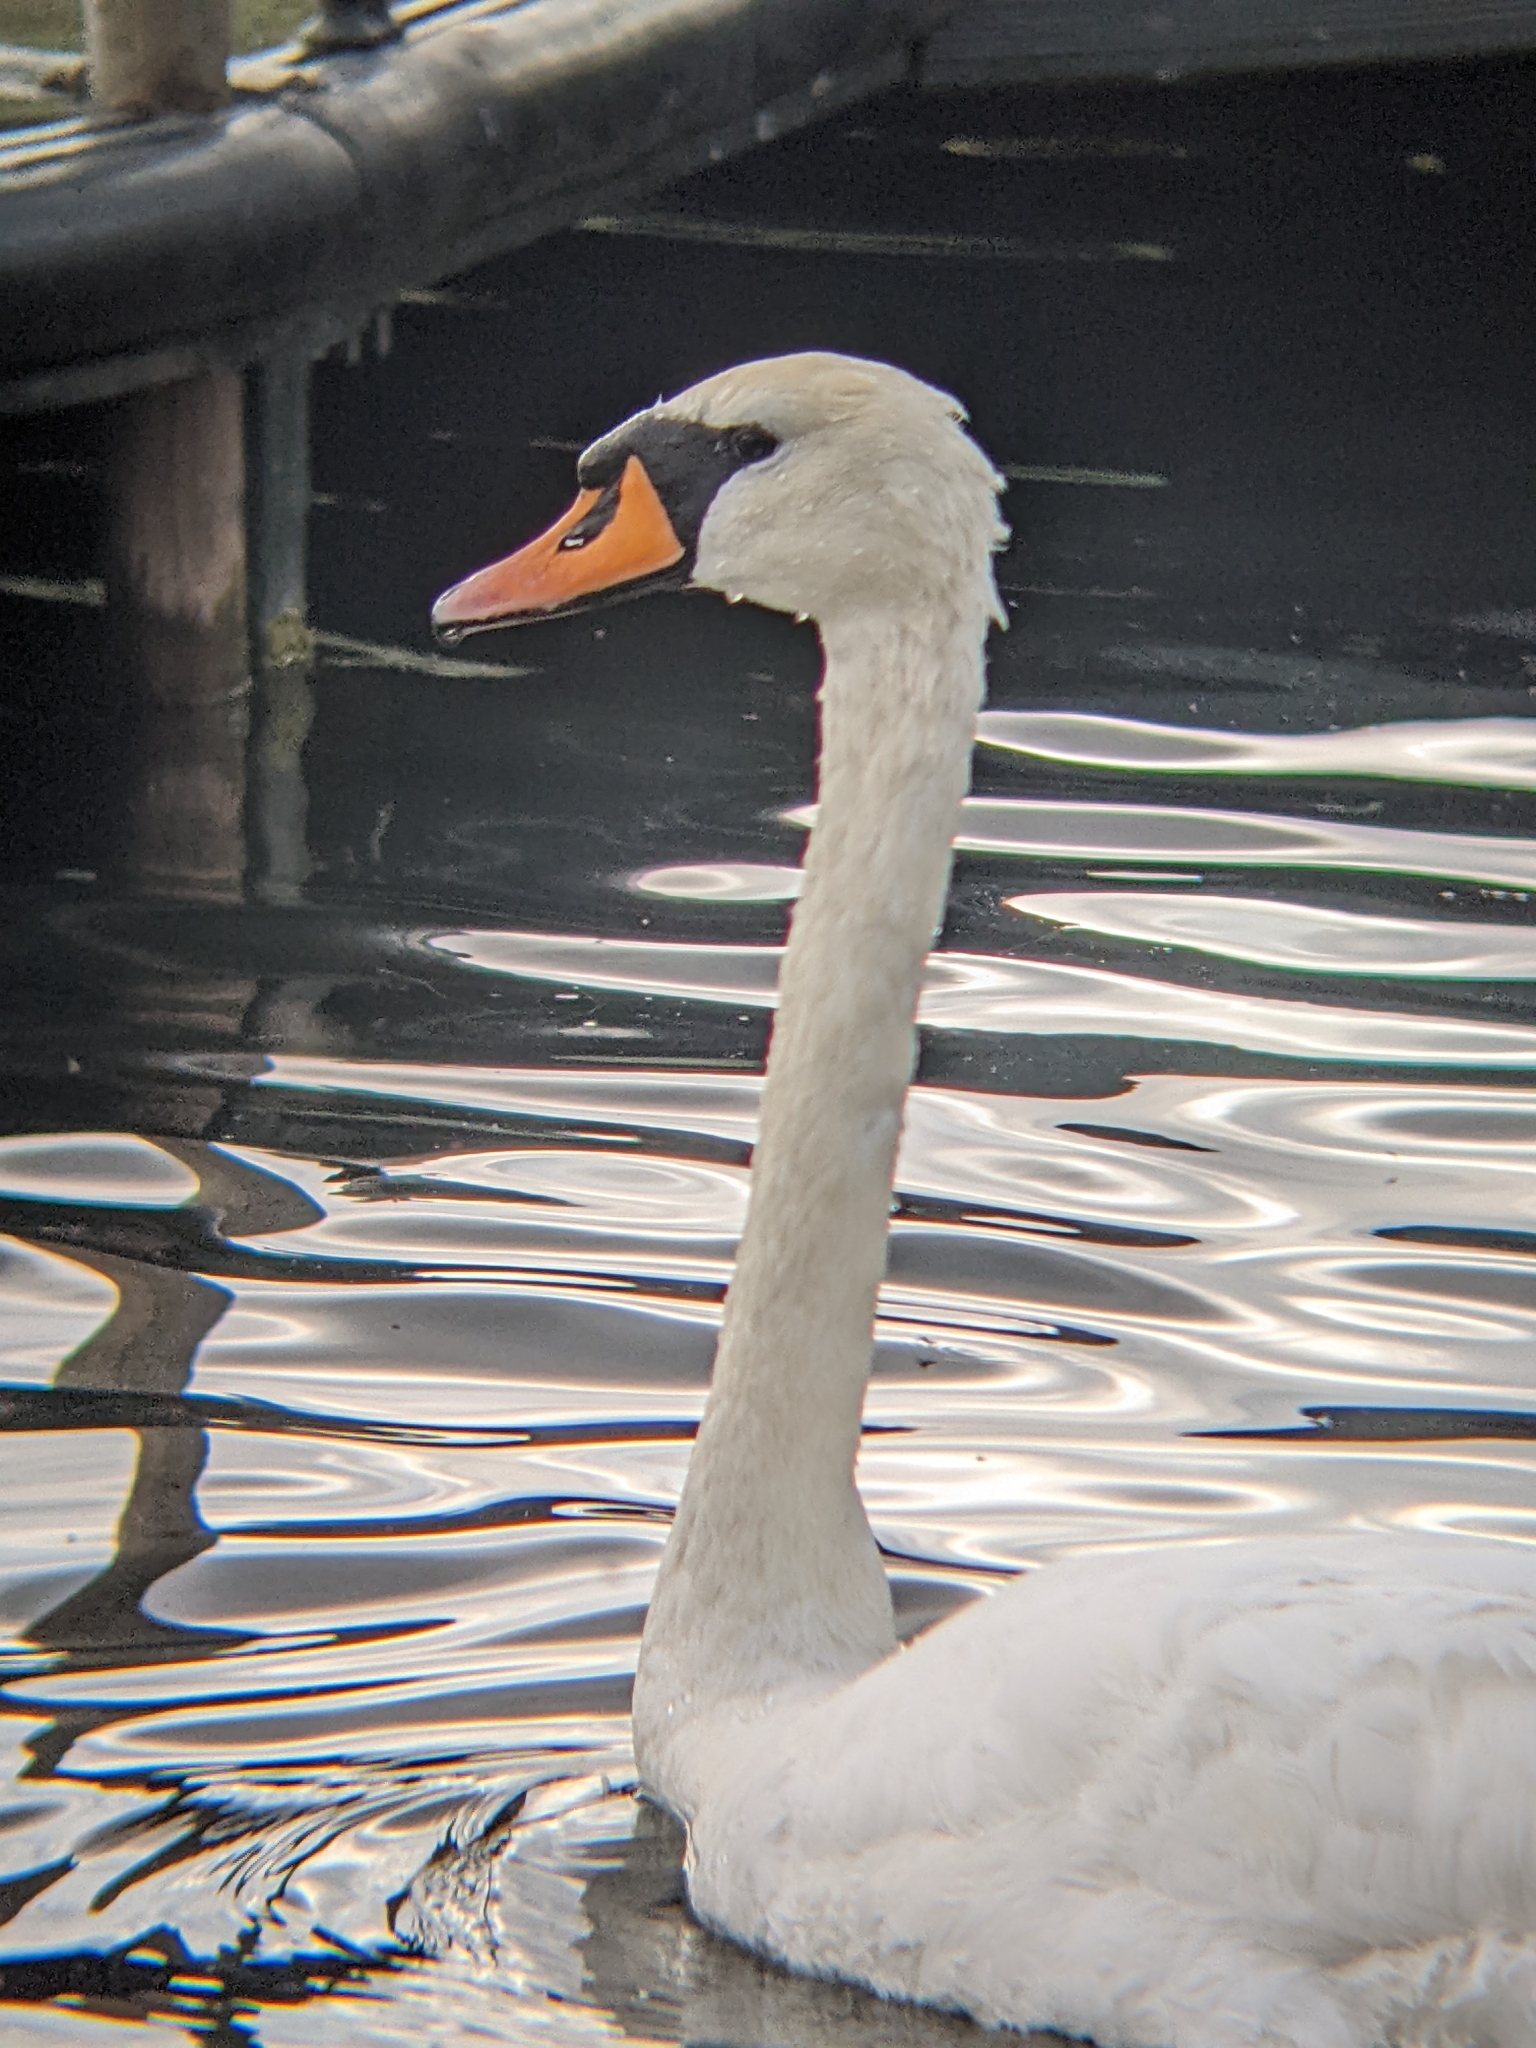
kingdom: Animalia
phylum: Chordata
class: Aves
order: Anseriformes
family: Anatidae
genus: Cygnus
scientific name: Cygnus olor
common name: Mute swan
